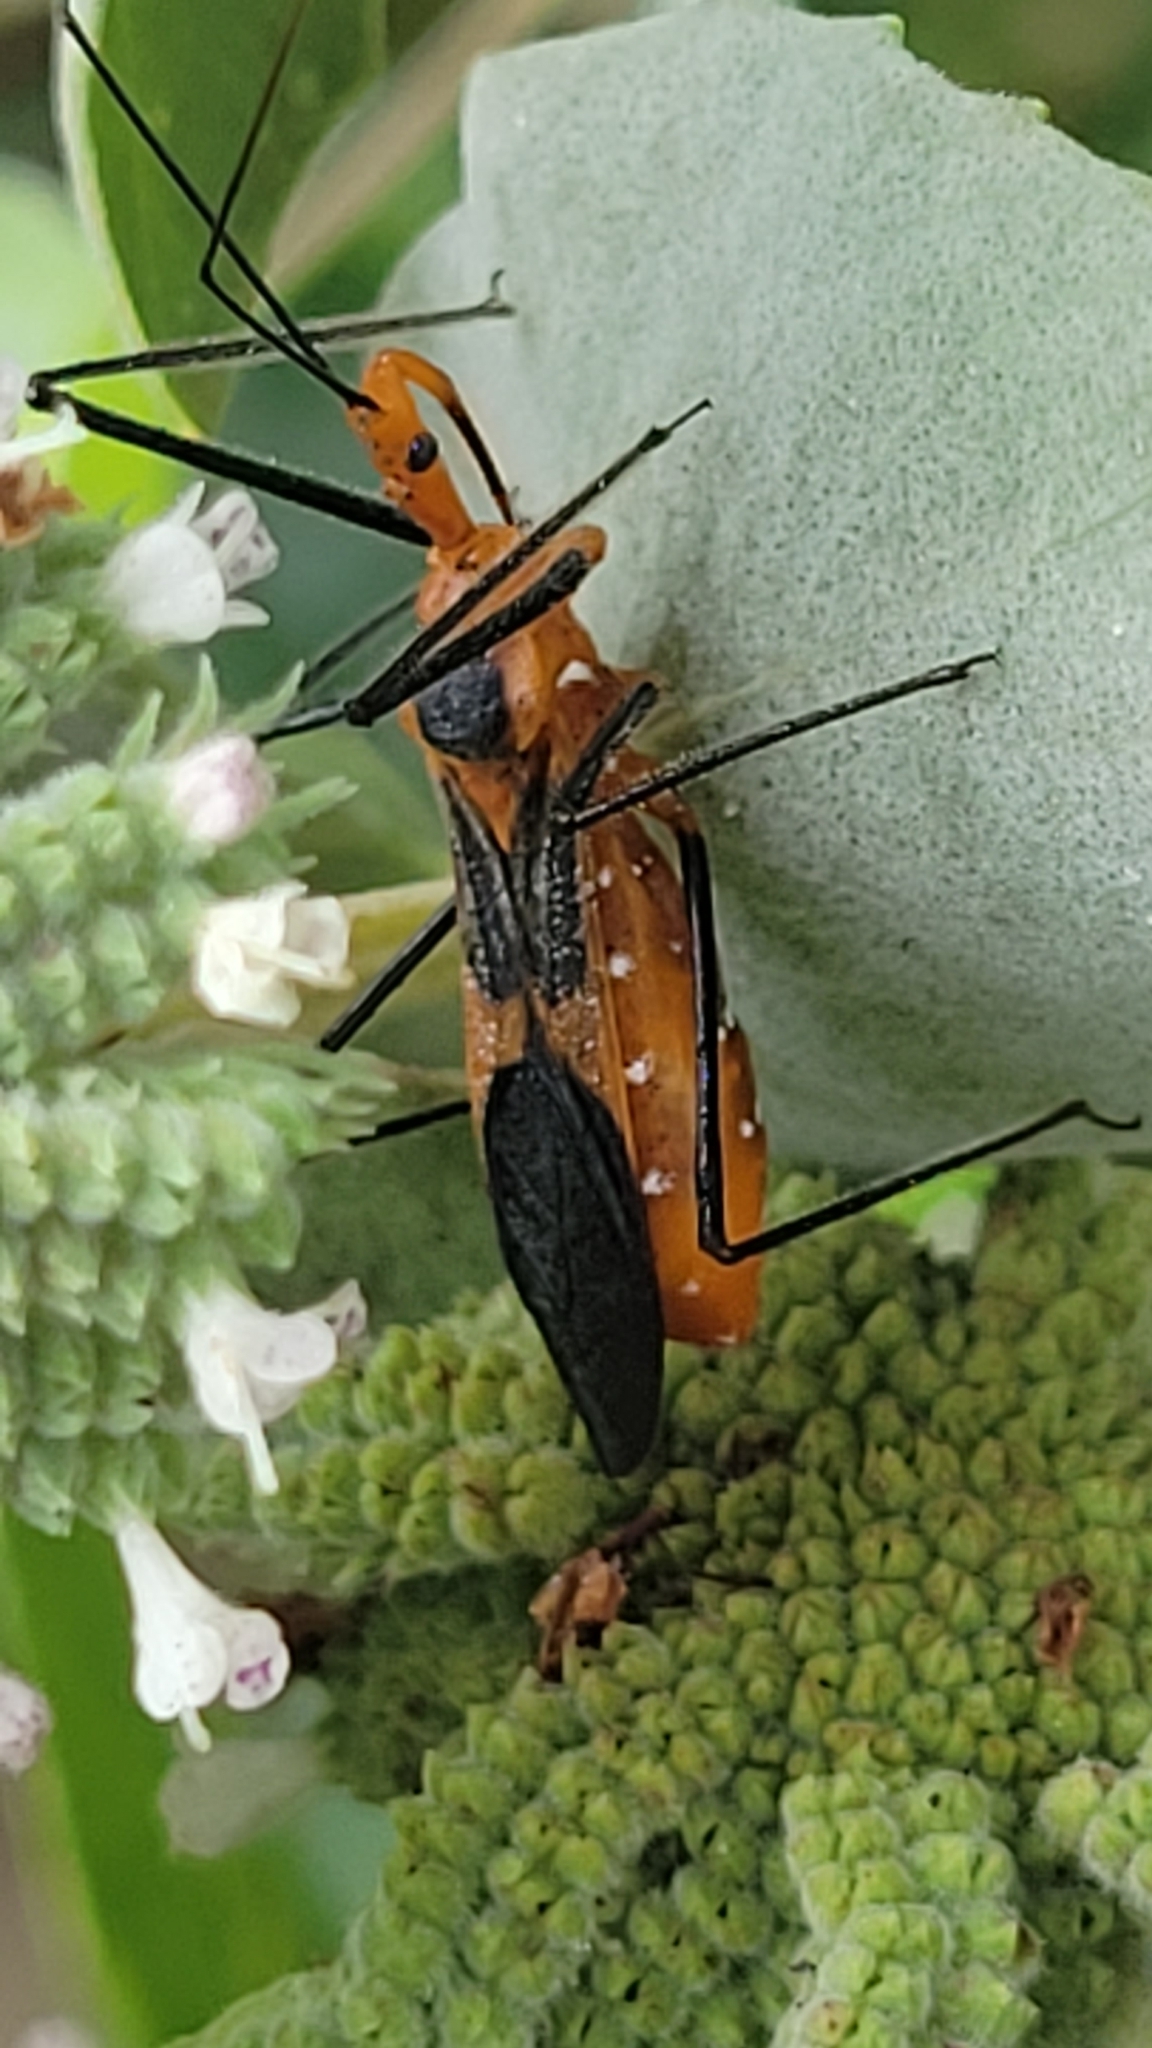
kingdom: Animalia
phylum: Arthropoda
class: Insecta
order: Hemiptera
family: Reduviidae
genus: Zelus
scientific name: Zelus longipes
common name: Milkweed assassin bug
